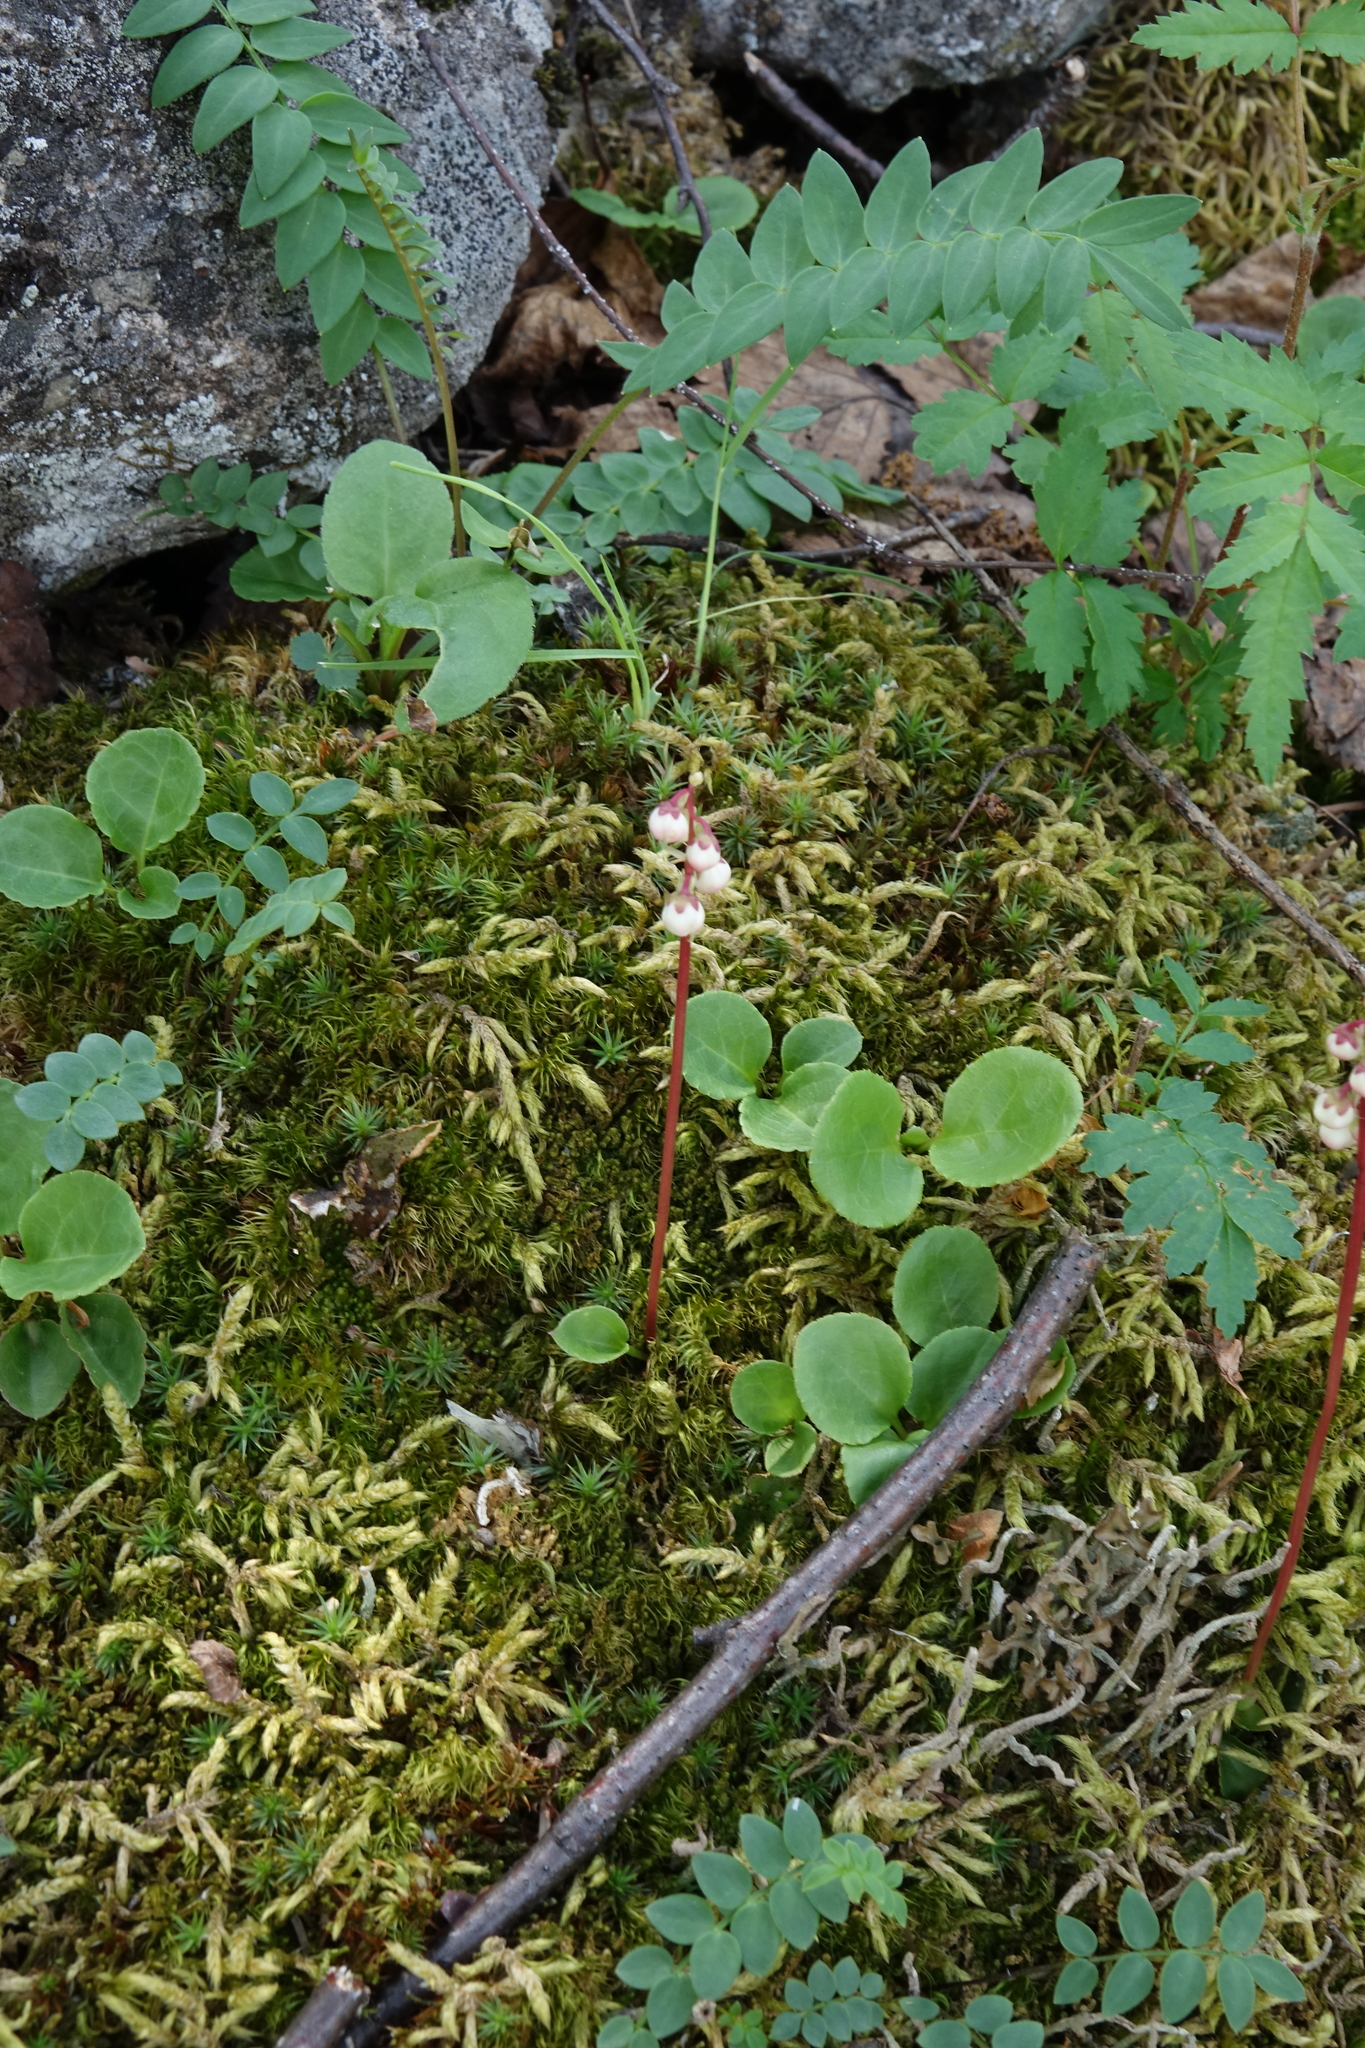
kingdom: Plantae
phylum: Tracheophyta
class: Magnoliopsida
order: Ericales
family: Ericaceae
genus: Pyrola
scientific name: Pyrola minor
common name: Common wintergreen
